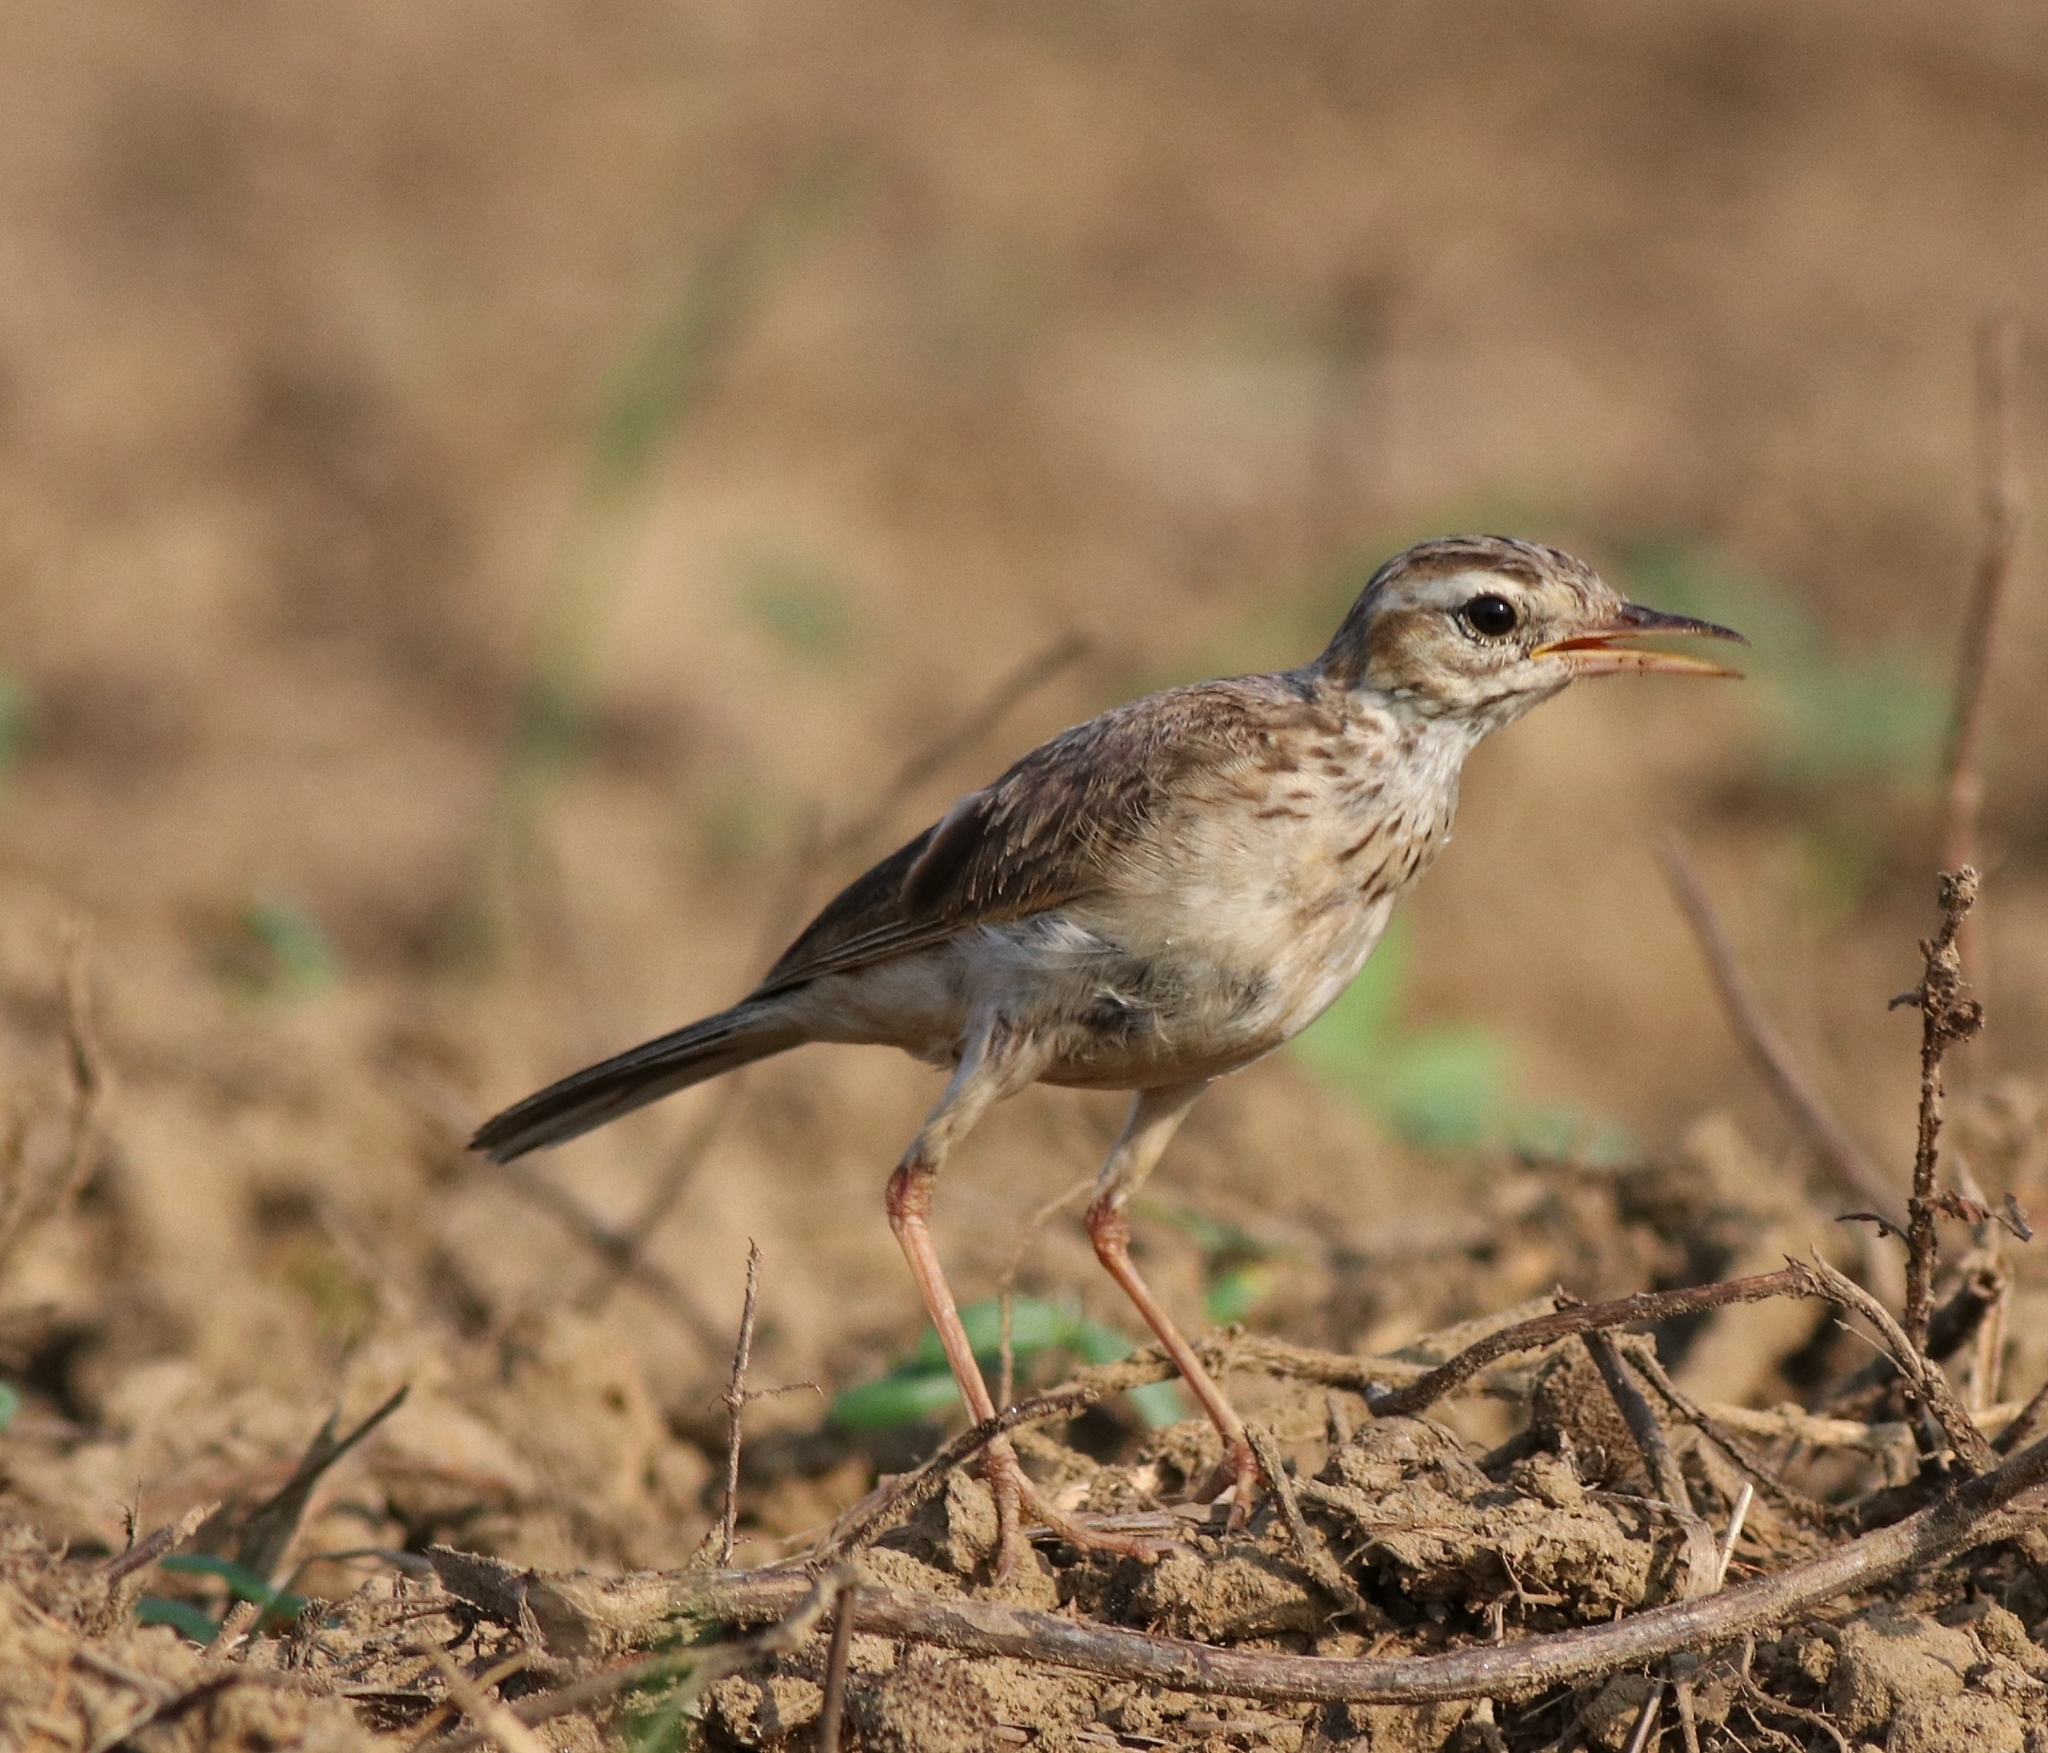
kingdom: Animalia
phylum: Chordata
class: Aves
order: Passeriformes
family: Motacillidae
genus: Anthus
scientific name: Anthus rufulus
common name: Paddyfield pipit
